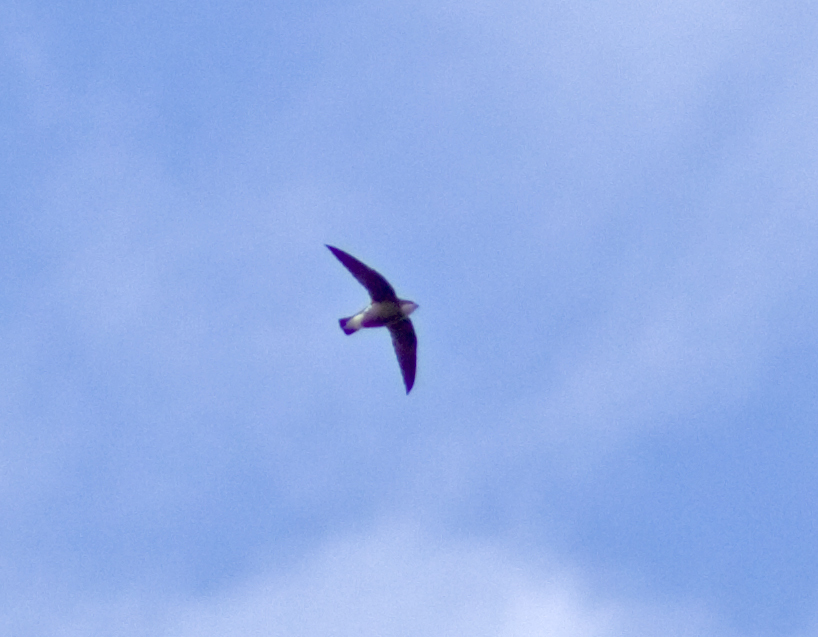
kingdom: Animalia
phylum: Chordata
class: Aves
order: Apodiformes
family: Apodidae
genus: Hirundapus
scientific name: Hirundapus caudacutus
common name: White-throated needletail
